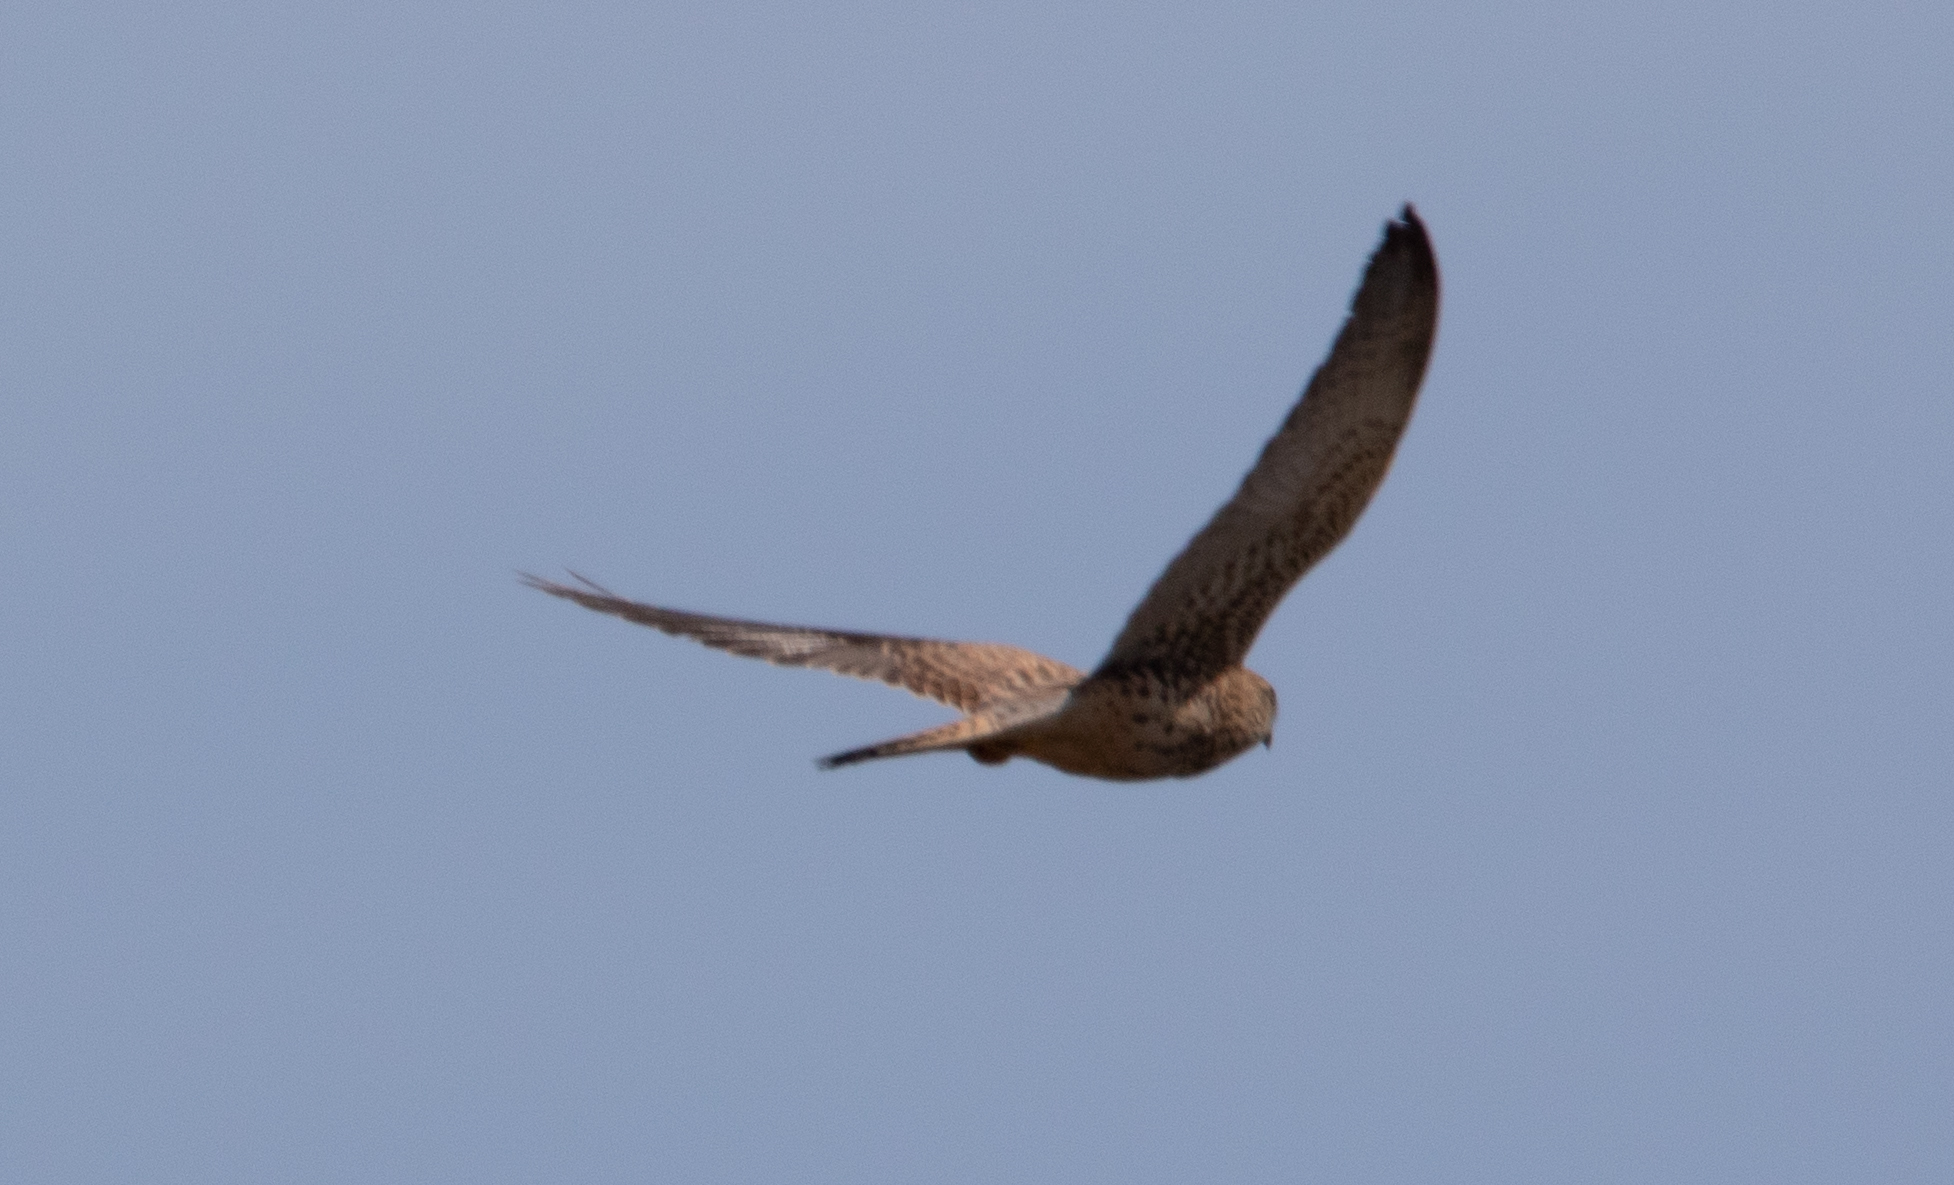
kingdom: Animalia
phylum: Chordata
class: Aves
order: Falconiformes
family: Falconidae
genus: Falco
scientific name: Falco tinnunculus
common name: Common kestrel
